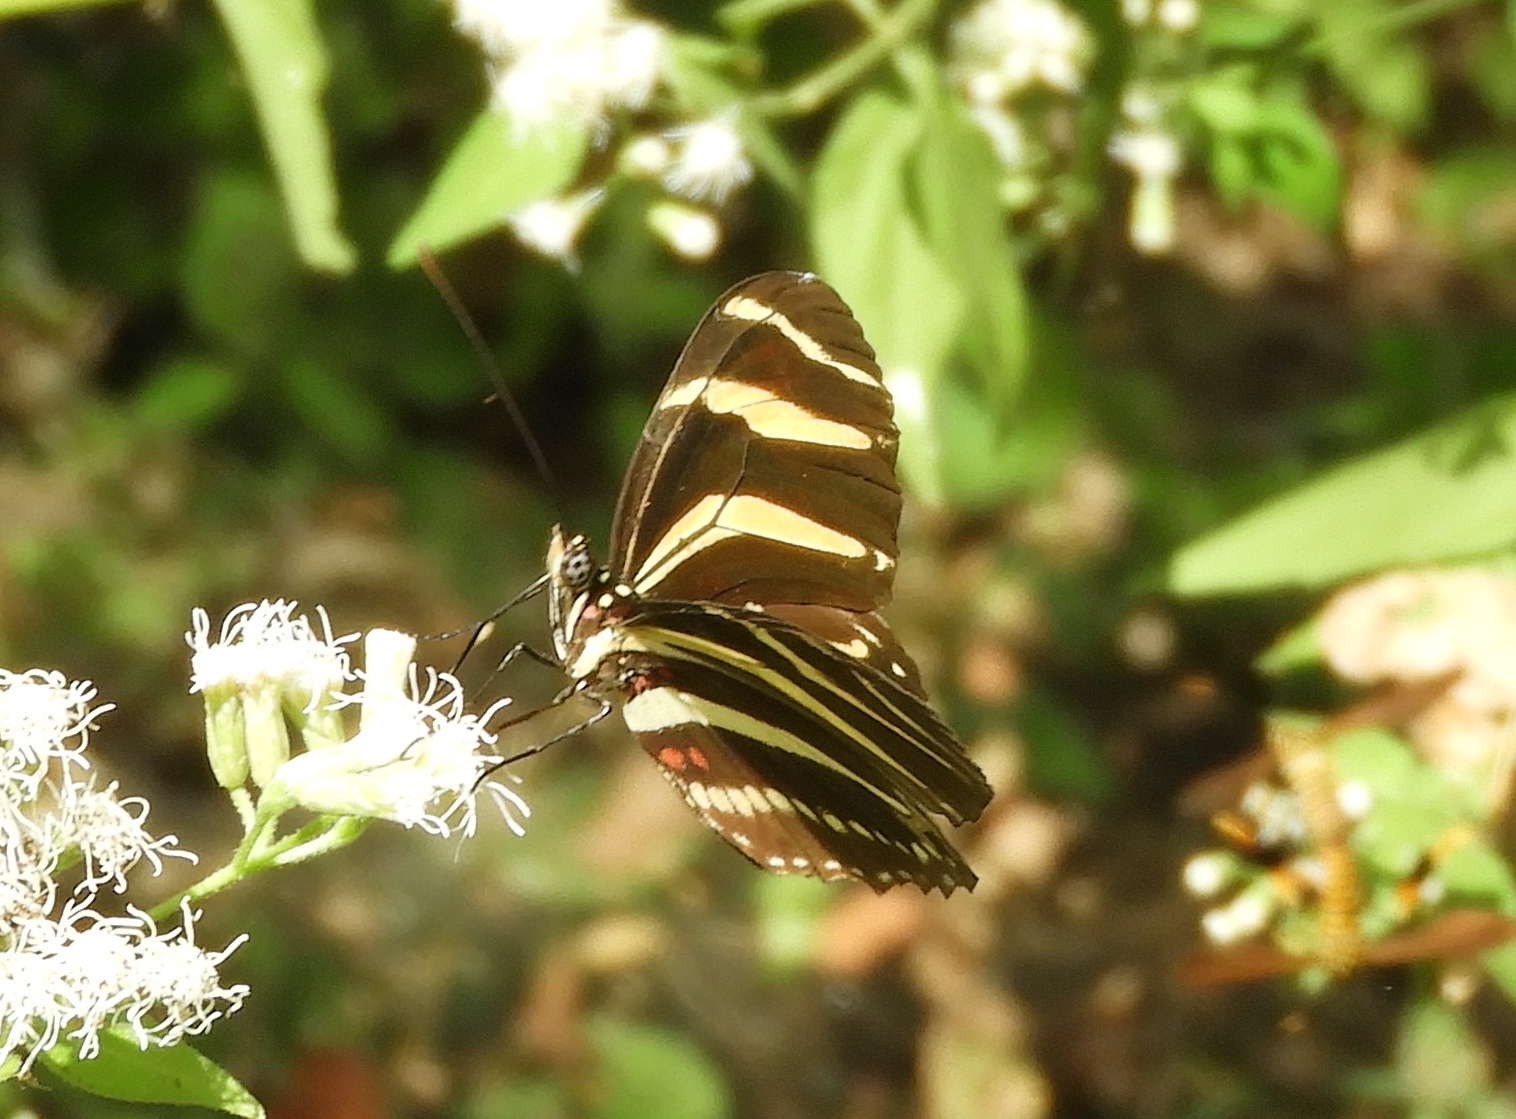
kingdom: Animalia
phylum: Arthropoda
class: Insecta
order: Lepidoptera
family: Nymphalidae
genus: Heliconius
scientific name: Heliconius charithonia
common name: Zebra long wing
